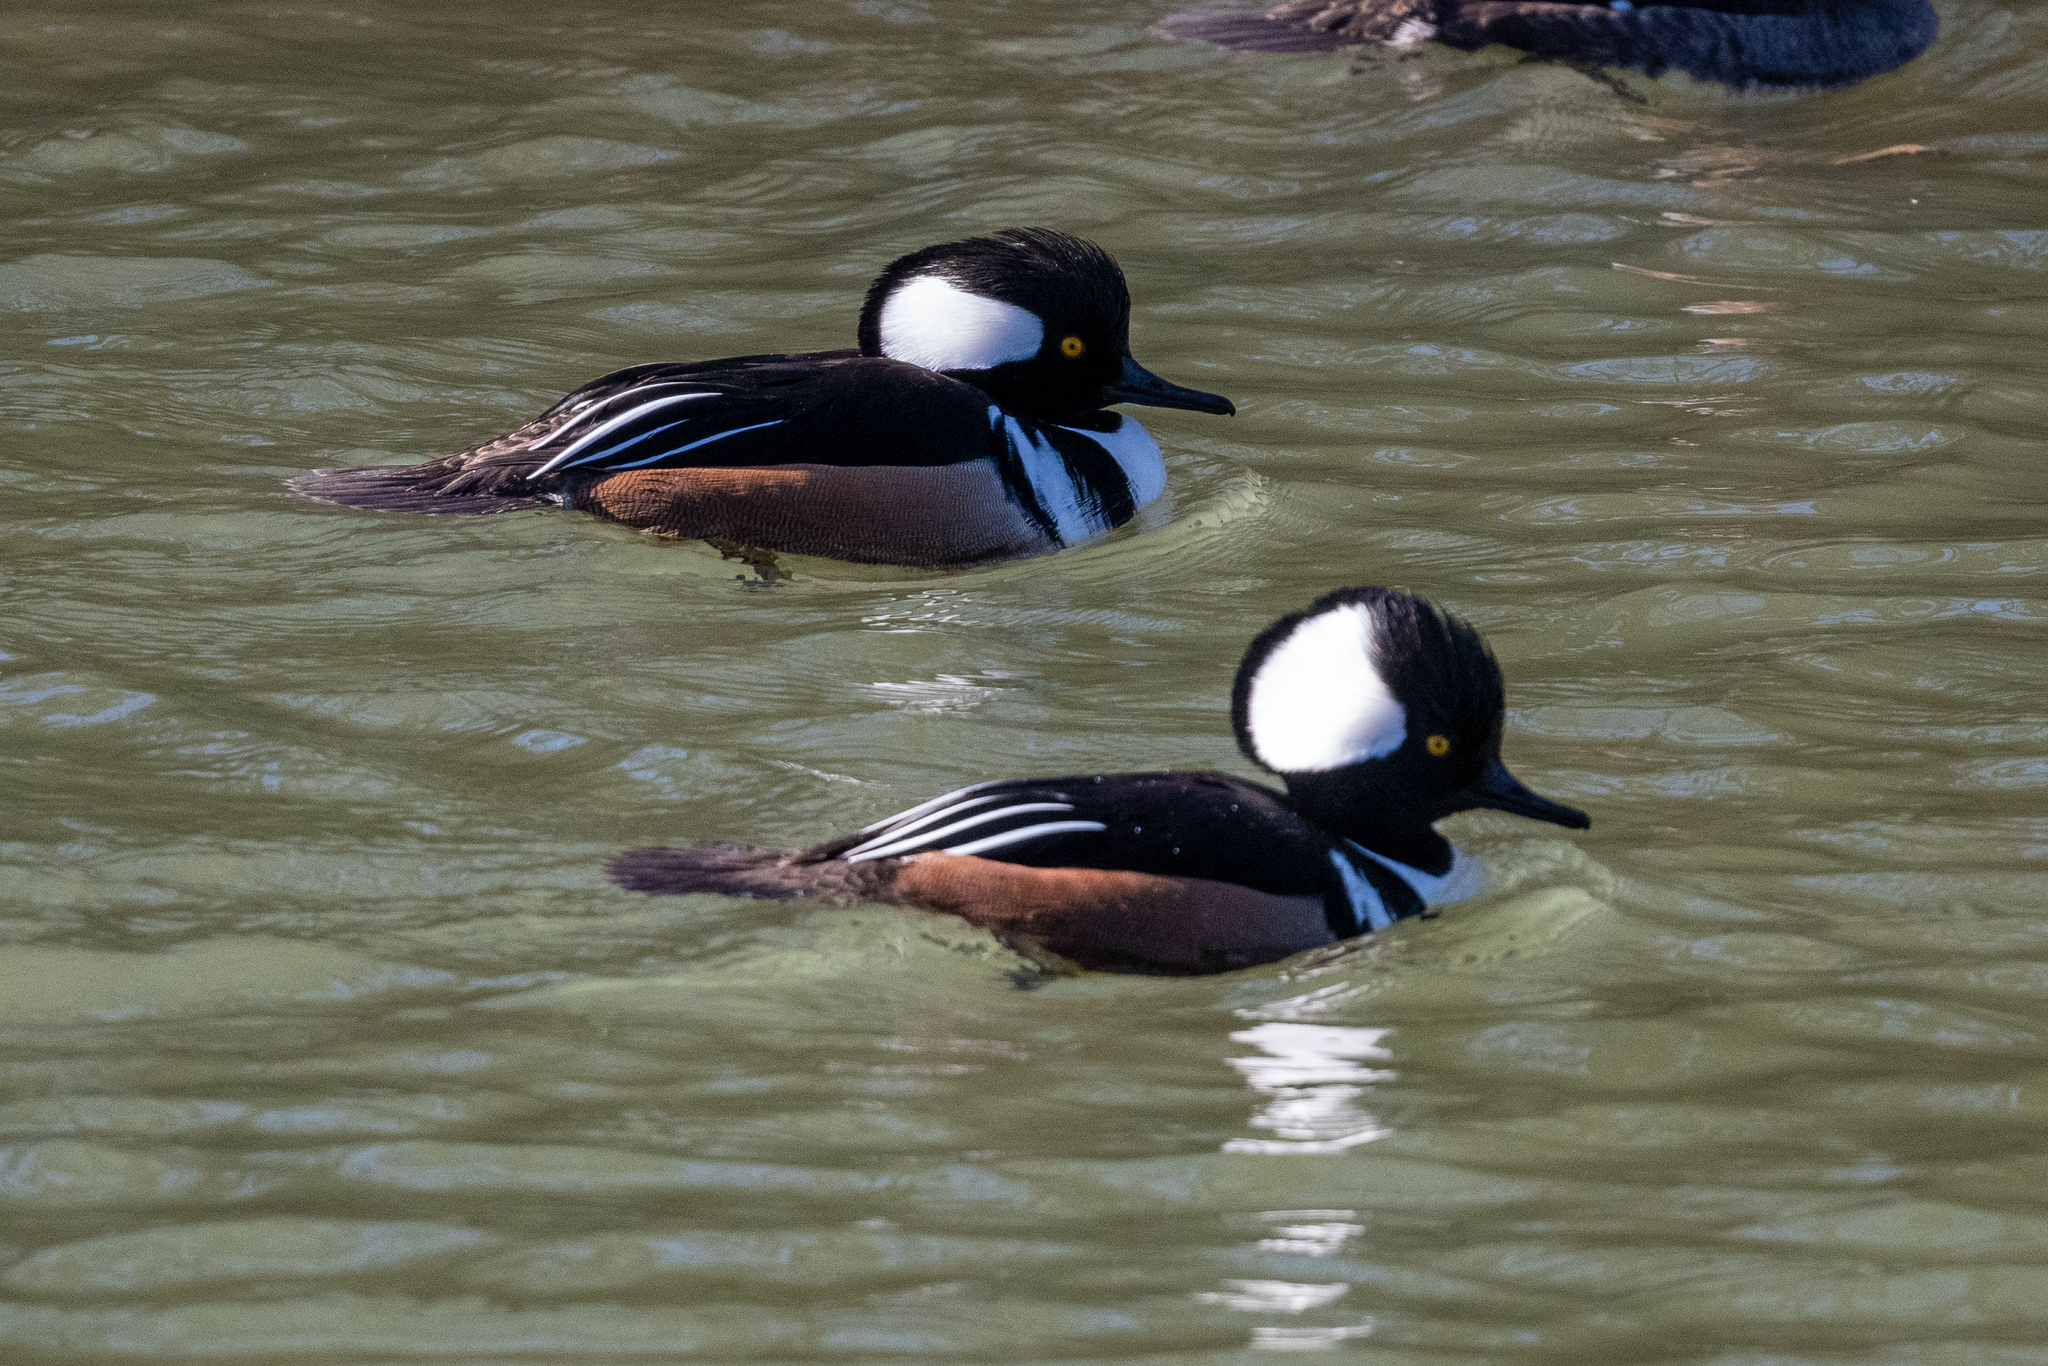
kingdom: Animalia
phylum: Chordata
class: Aves
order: Anseriformes
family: Anatidae
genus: Lophodytes
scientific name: Lophodytes cucullatus
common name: Hooded merganser
